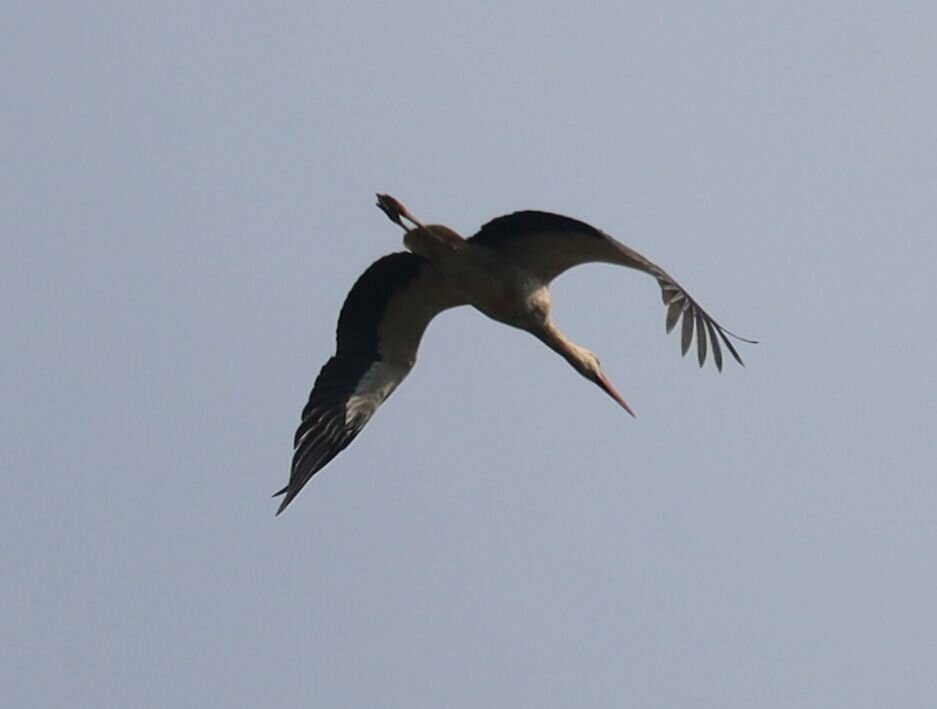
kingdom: Animalia
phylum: Chordata
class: Aves
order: Ciconiiformes
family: Ciconiidae
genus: Ciconia
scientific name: Ciconia ciconia
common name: White stork
